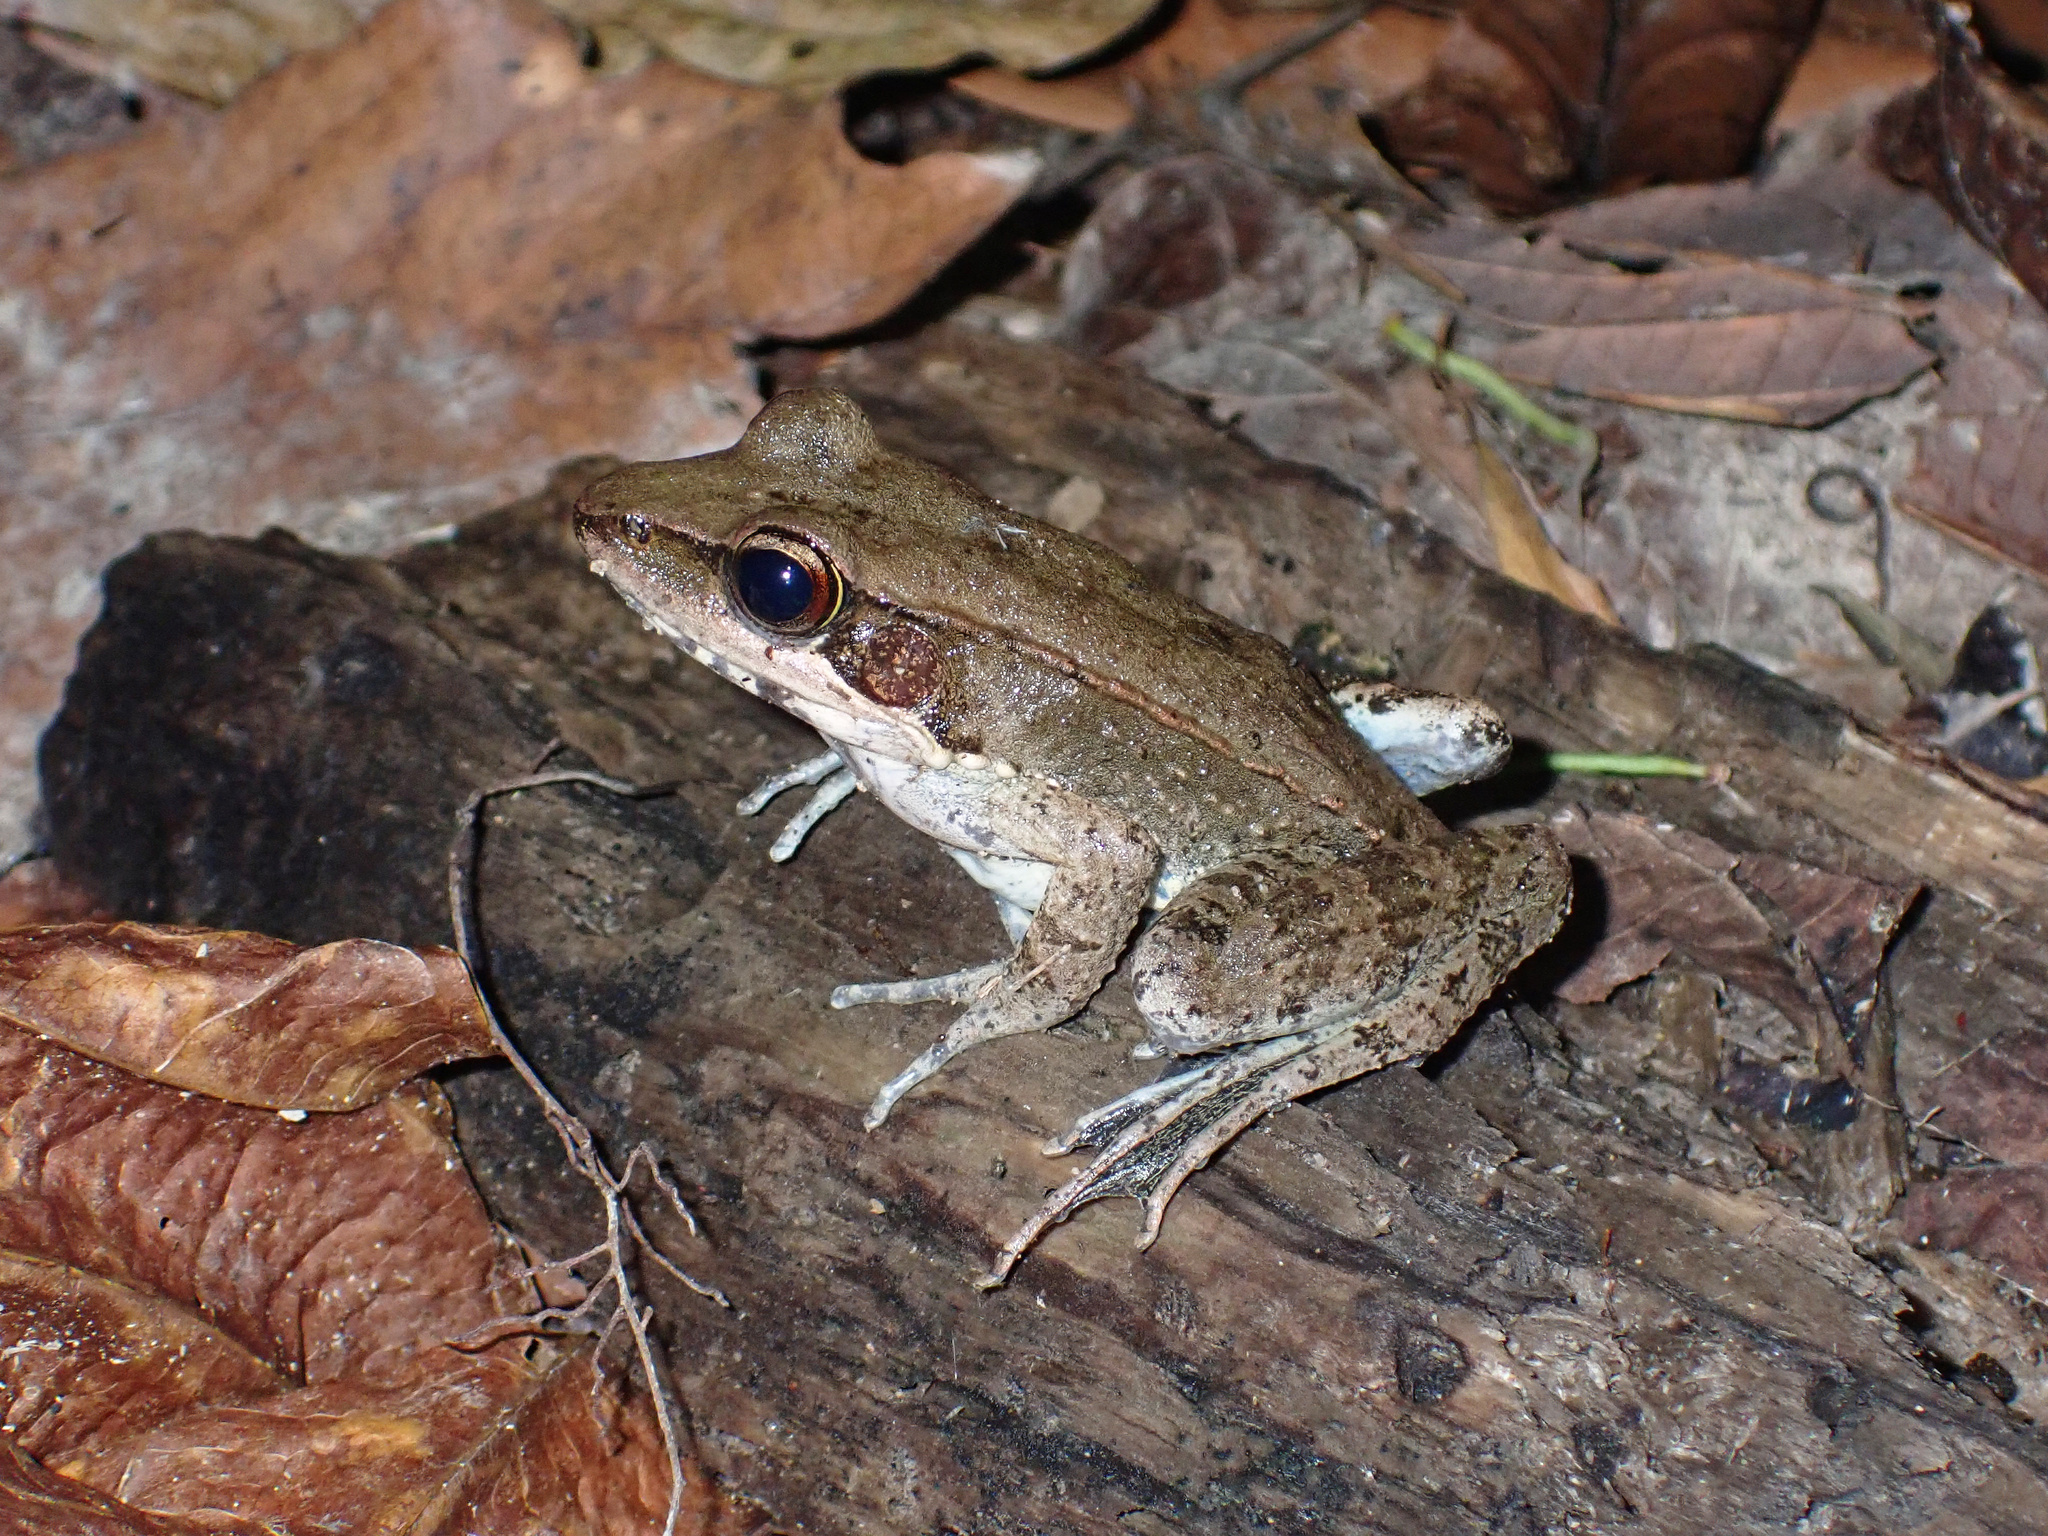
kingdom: Animalia
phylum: Chordata
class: Amphibia
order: Anura
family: Ranidae
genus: Papurana
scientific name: Papurana daemeli
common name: Arhem rana
